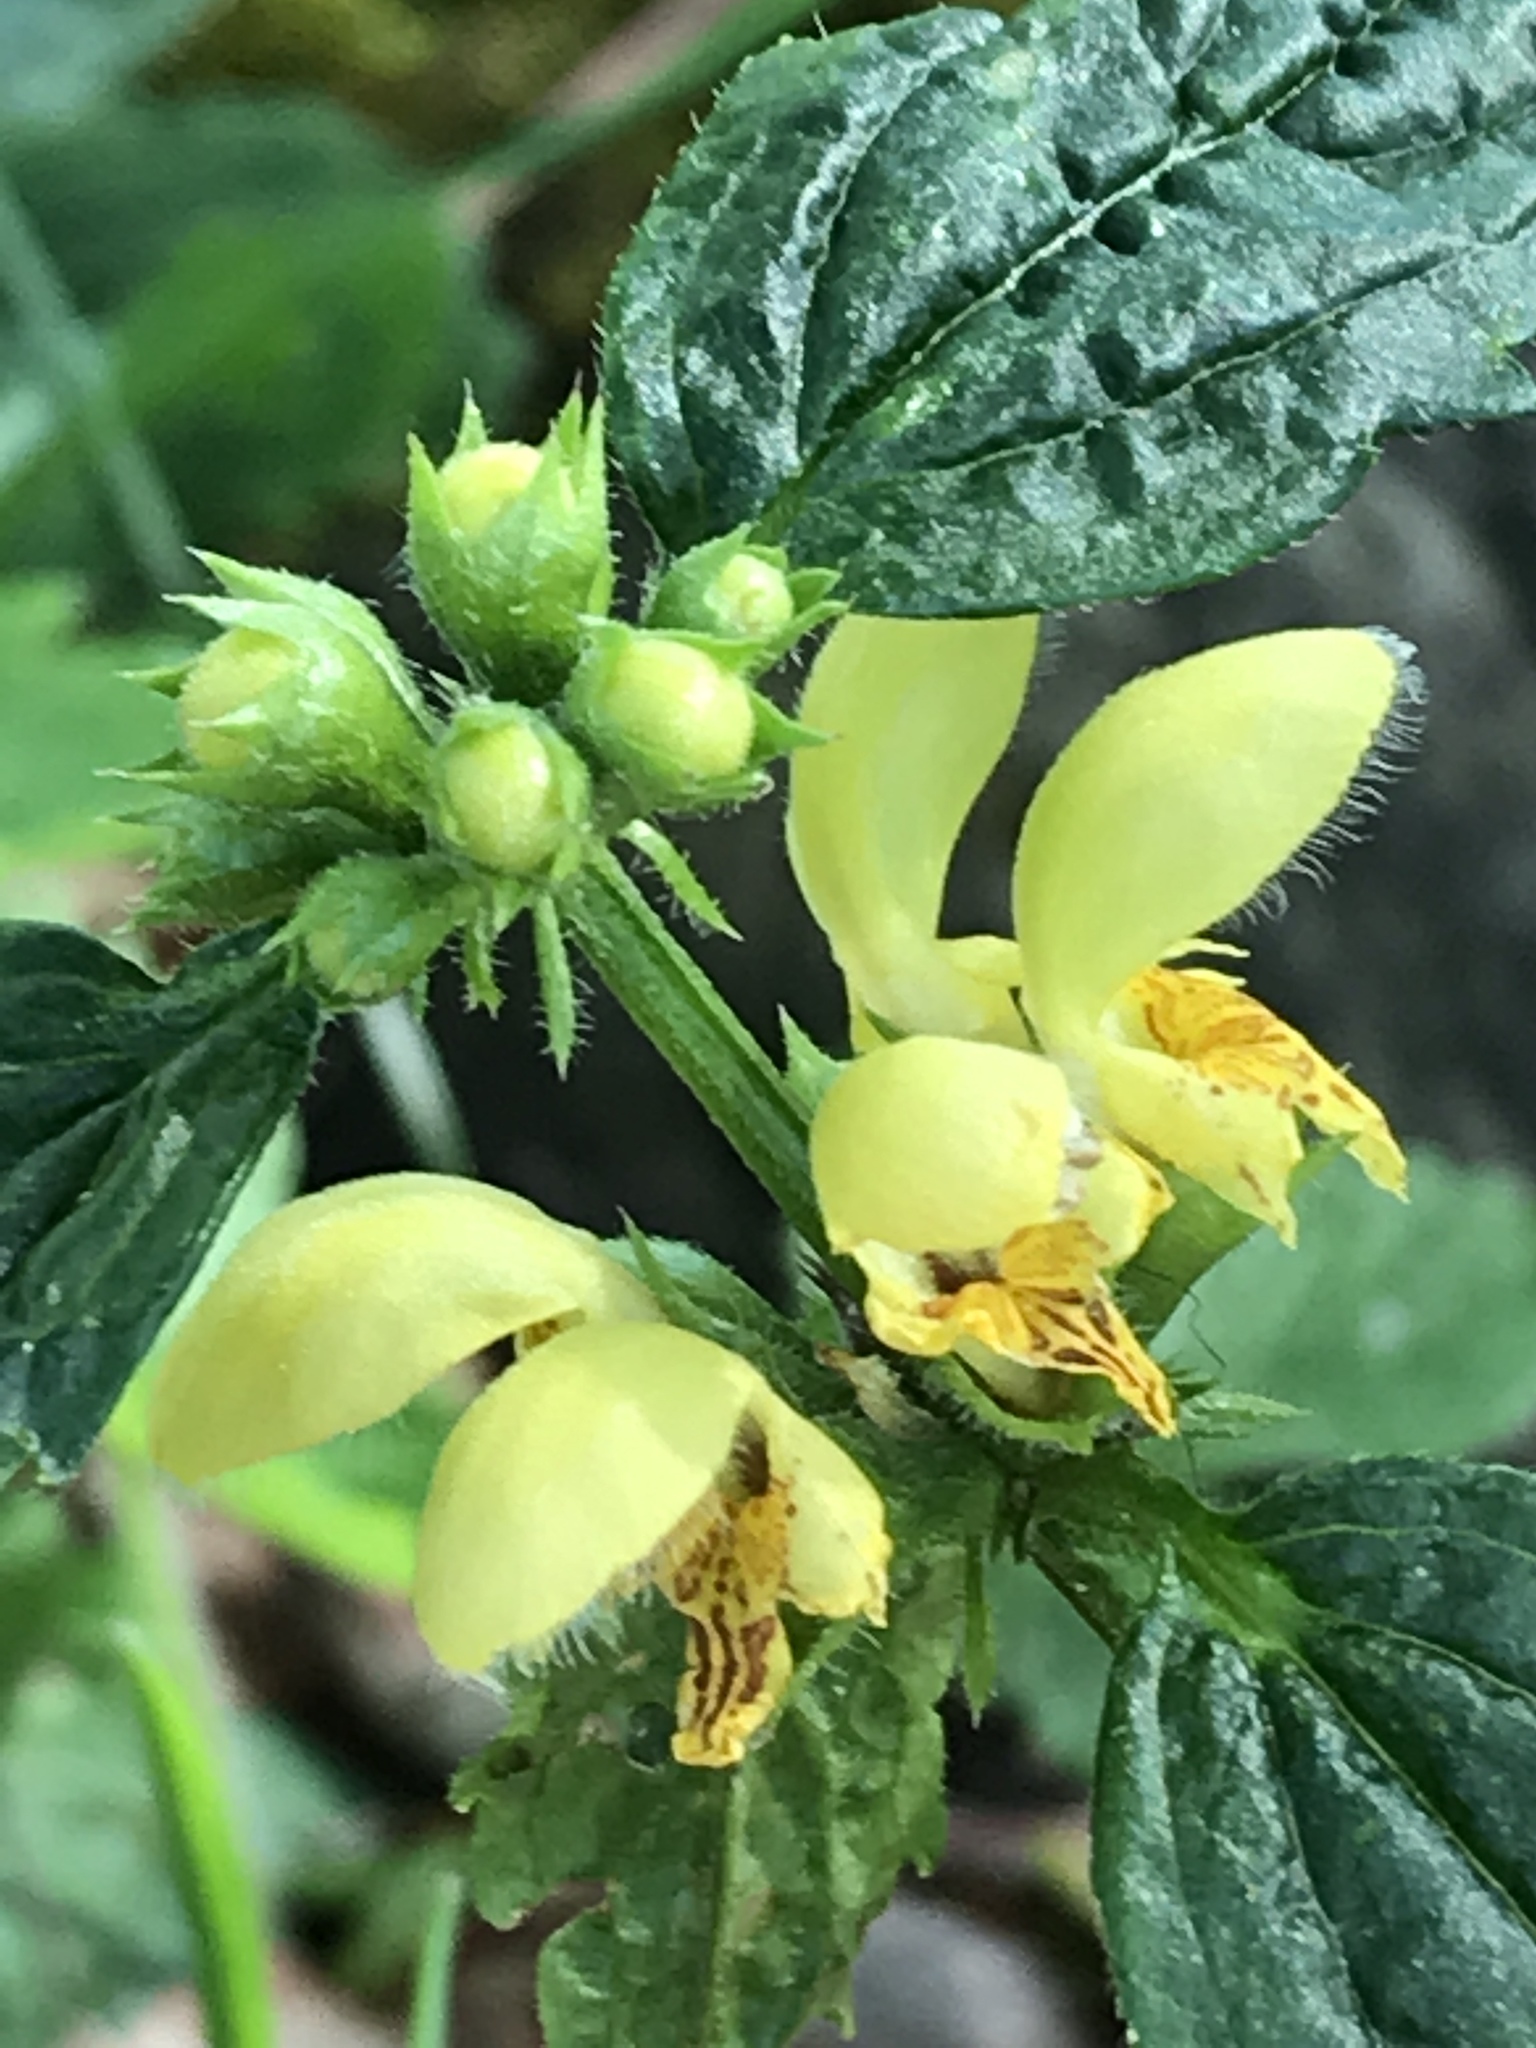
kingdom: Plantae
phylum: Tracheophyta
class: Magnoliopsida
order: Lamiales
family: Lamiaceae
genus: Lamium
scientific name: Lamium galeobdolon
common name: Yellow archangel
